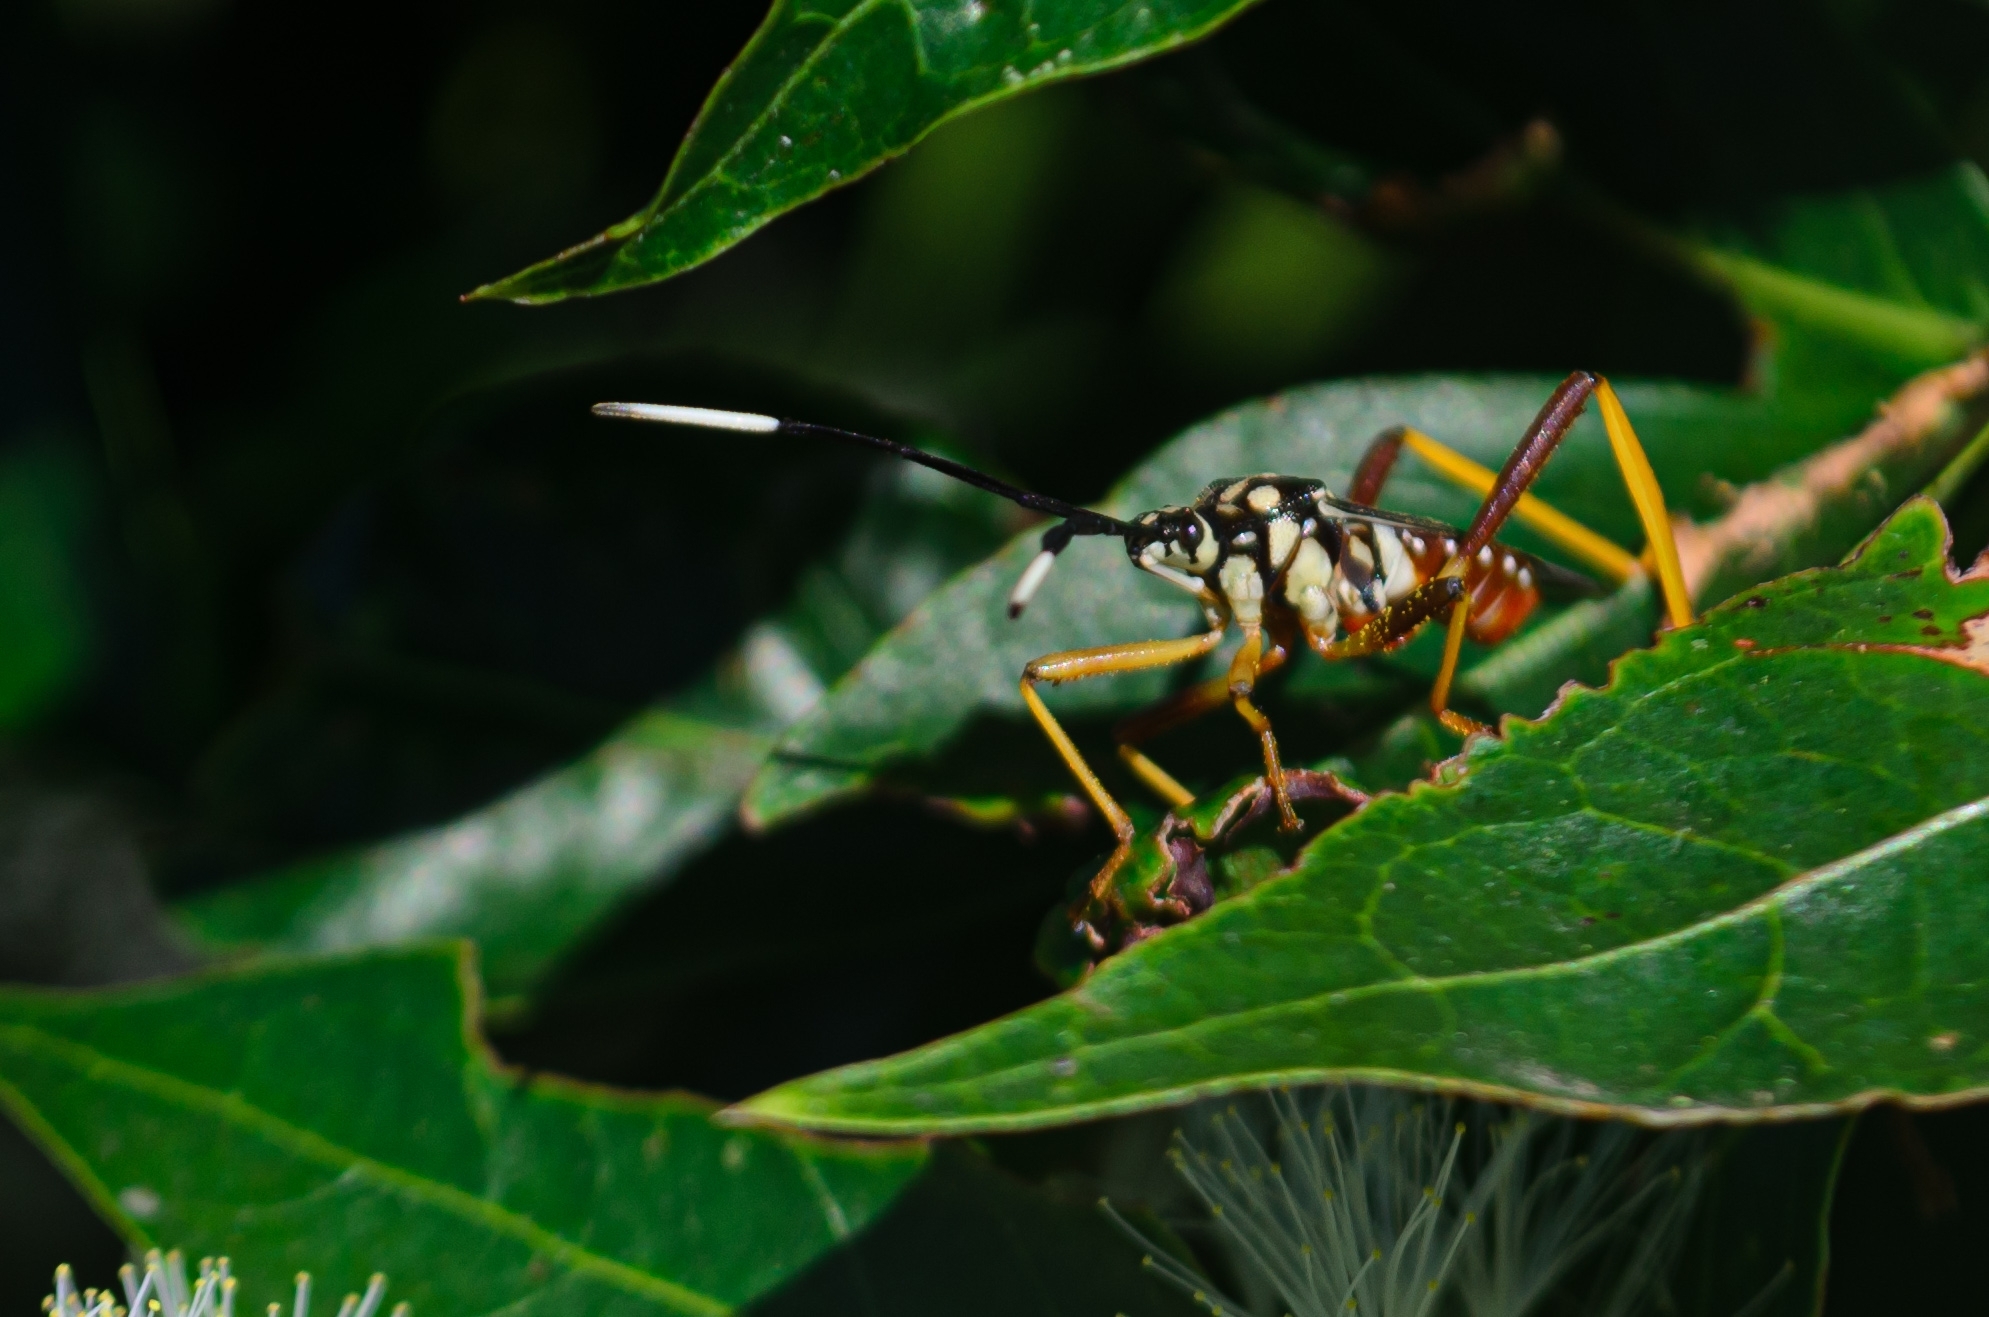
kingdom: Animalia
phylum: Arthropoda
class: Insecta
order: Hemiptera
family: Coreidae
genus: Holhymenia
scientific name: Holhymenia histrio
